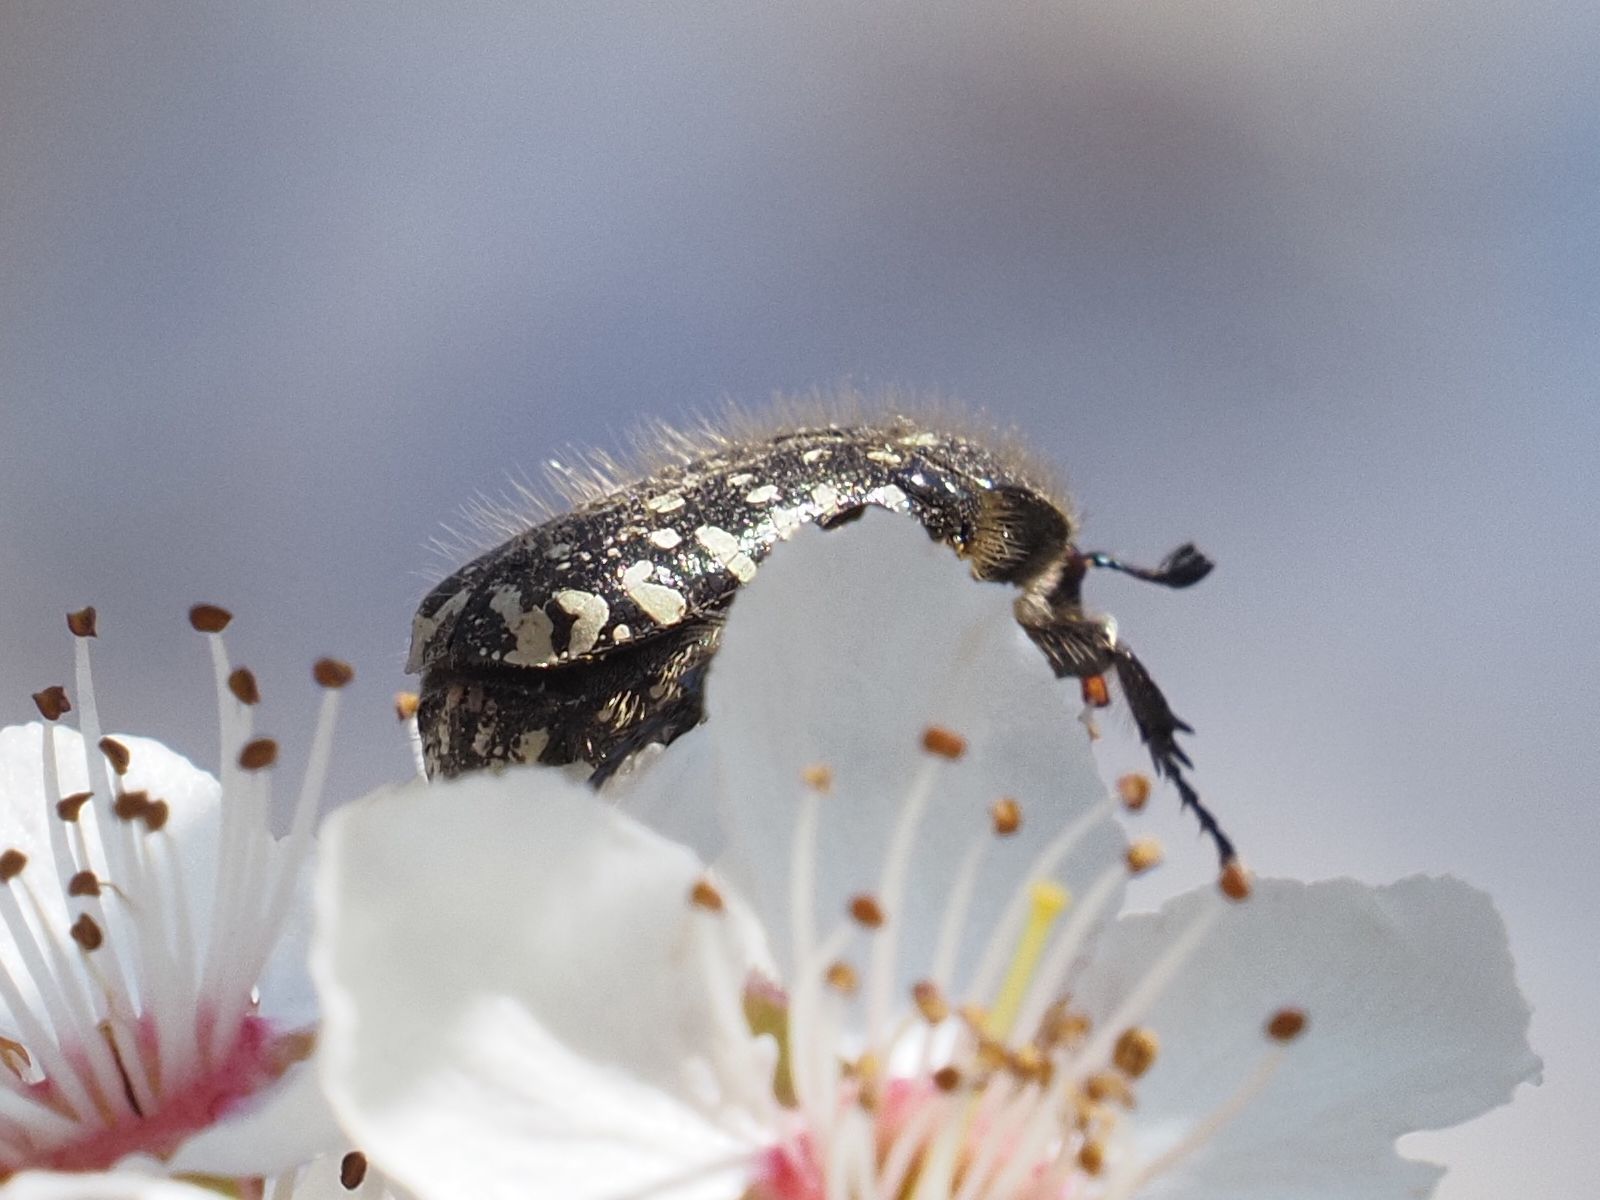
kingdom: Animalia
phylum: Arthropoda
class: Insecta
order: Coleoptera
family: Scarabaeidae
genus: Oxythyrea
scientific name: Oxythyrea funesta
